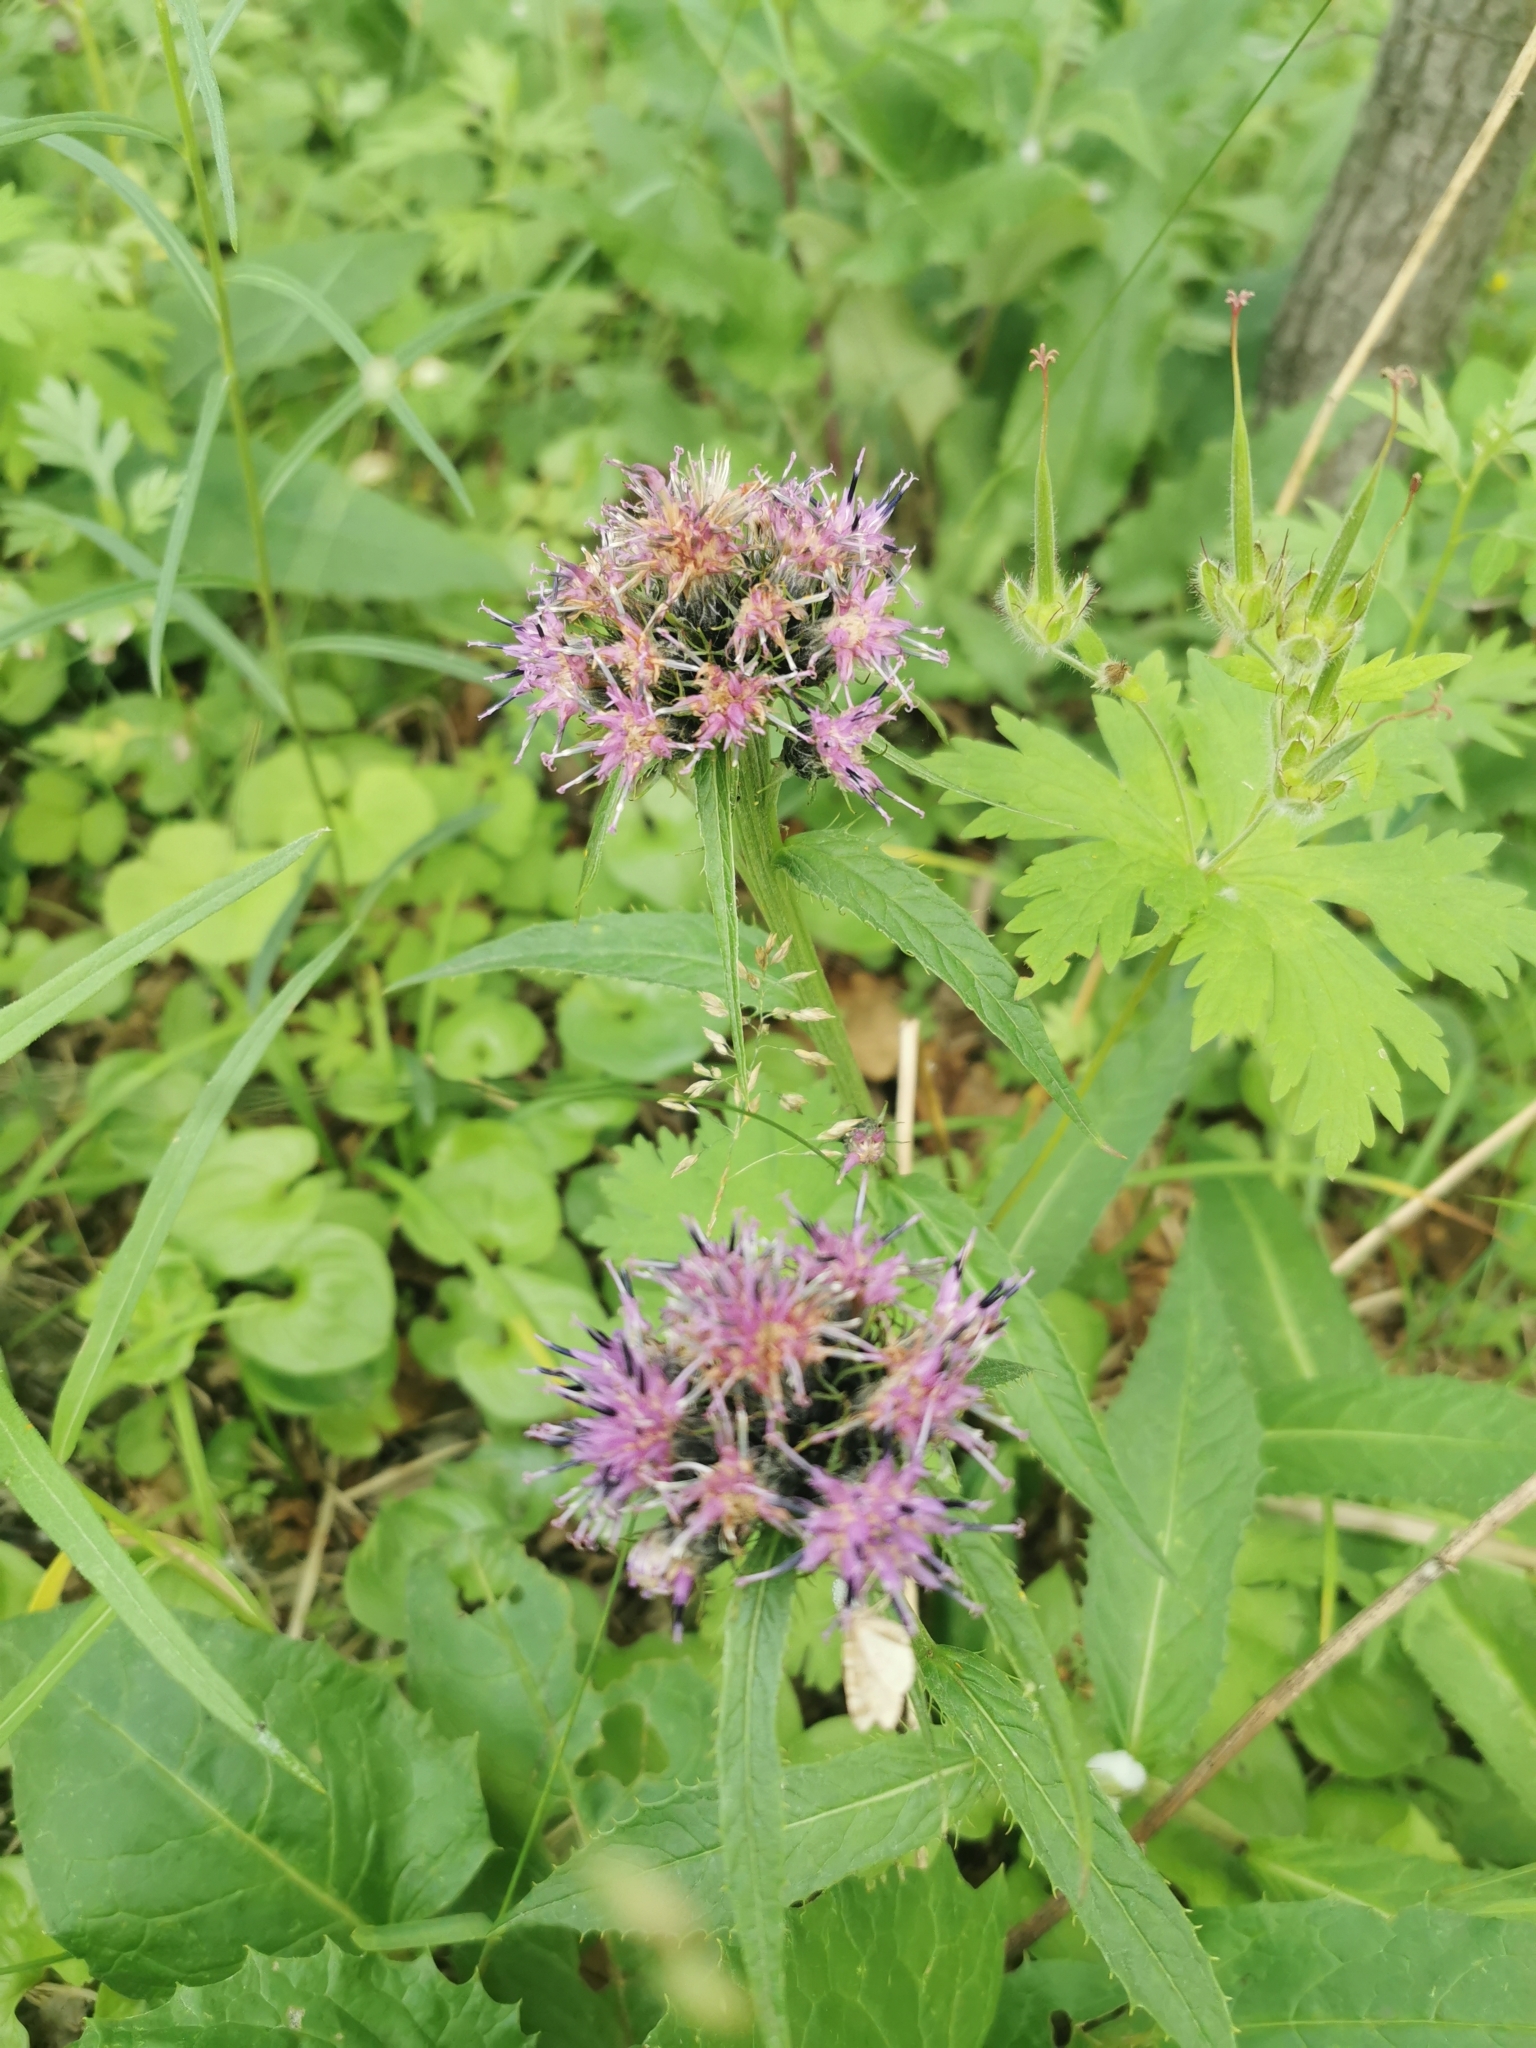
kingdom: Plantae
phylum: Tracheophyta
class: Magnoliopsida
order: Asterales
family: Asteraceae
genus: Saussurea
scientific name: Saussurea pseudotilesii
